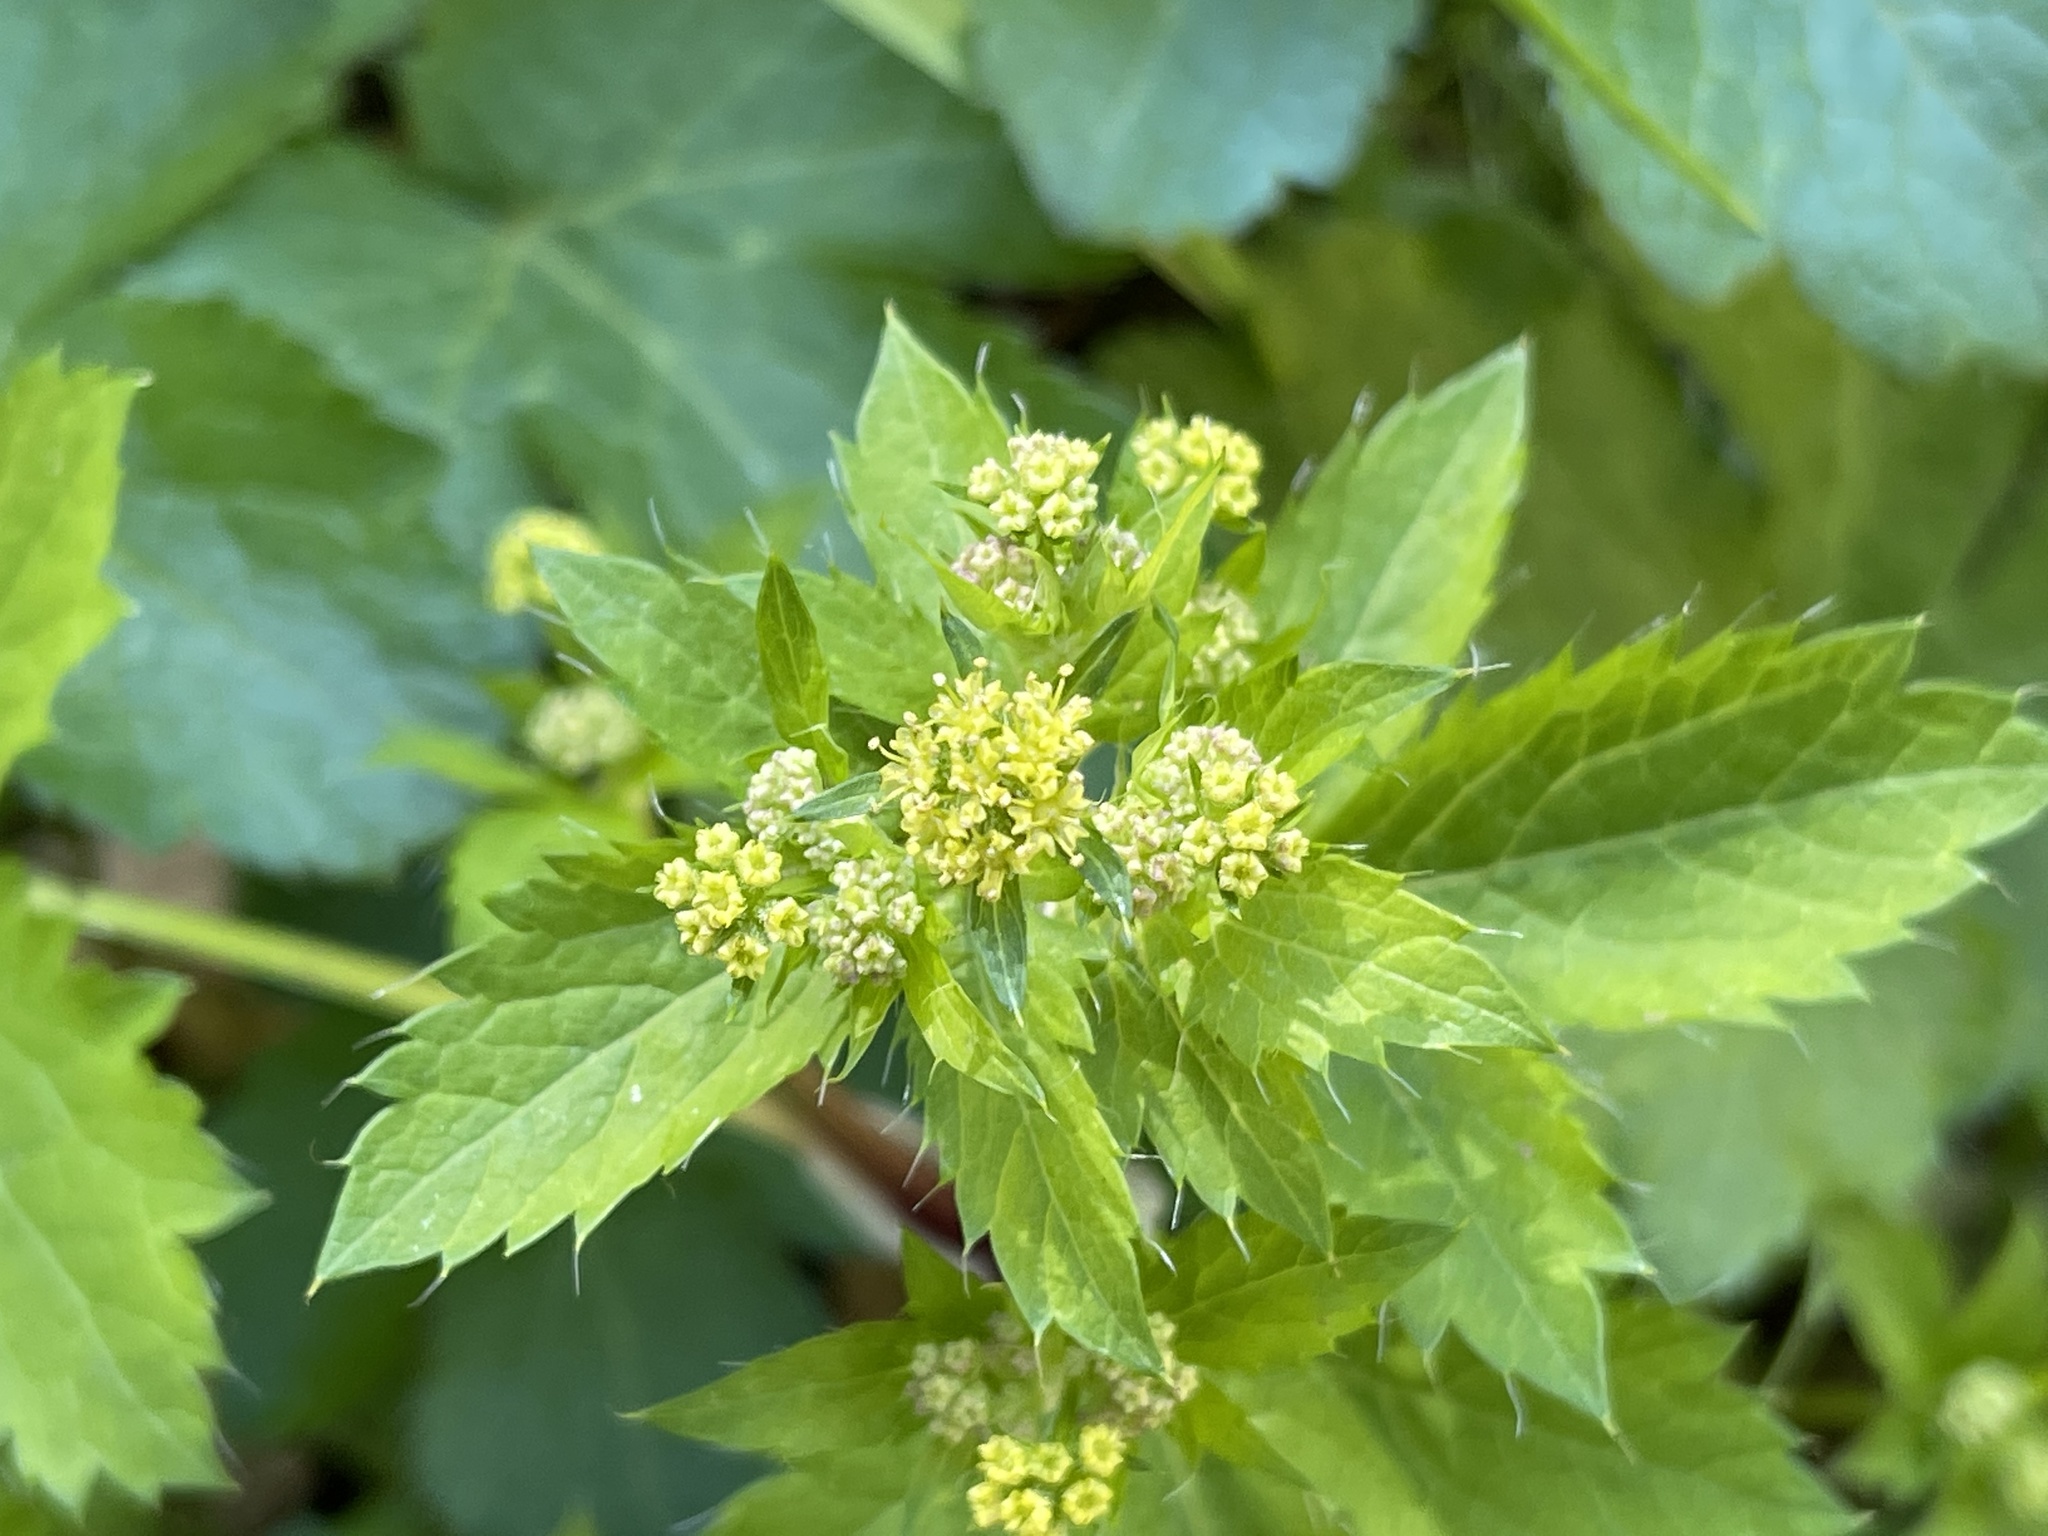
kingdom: Plantae
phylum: Tracheophyta
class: Magnoliopsida
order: Apiales
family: Apiaceae
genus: Sanicula
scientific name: Sanicula crassicaulis
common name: Western snakeroot
